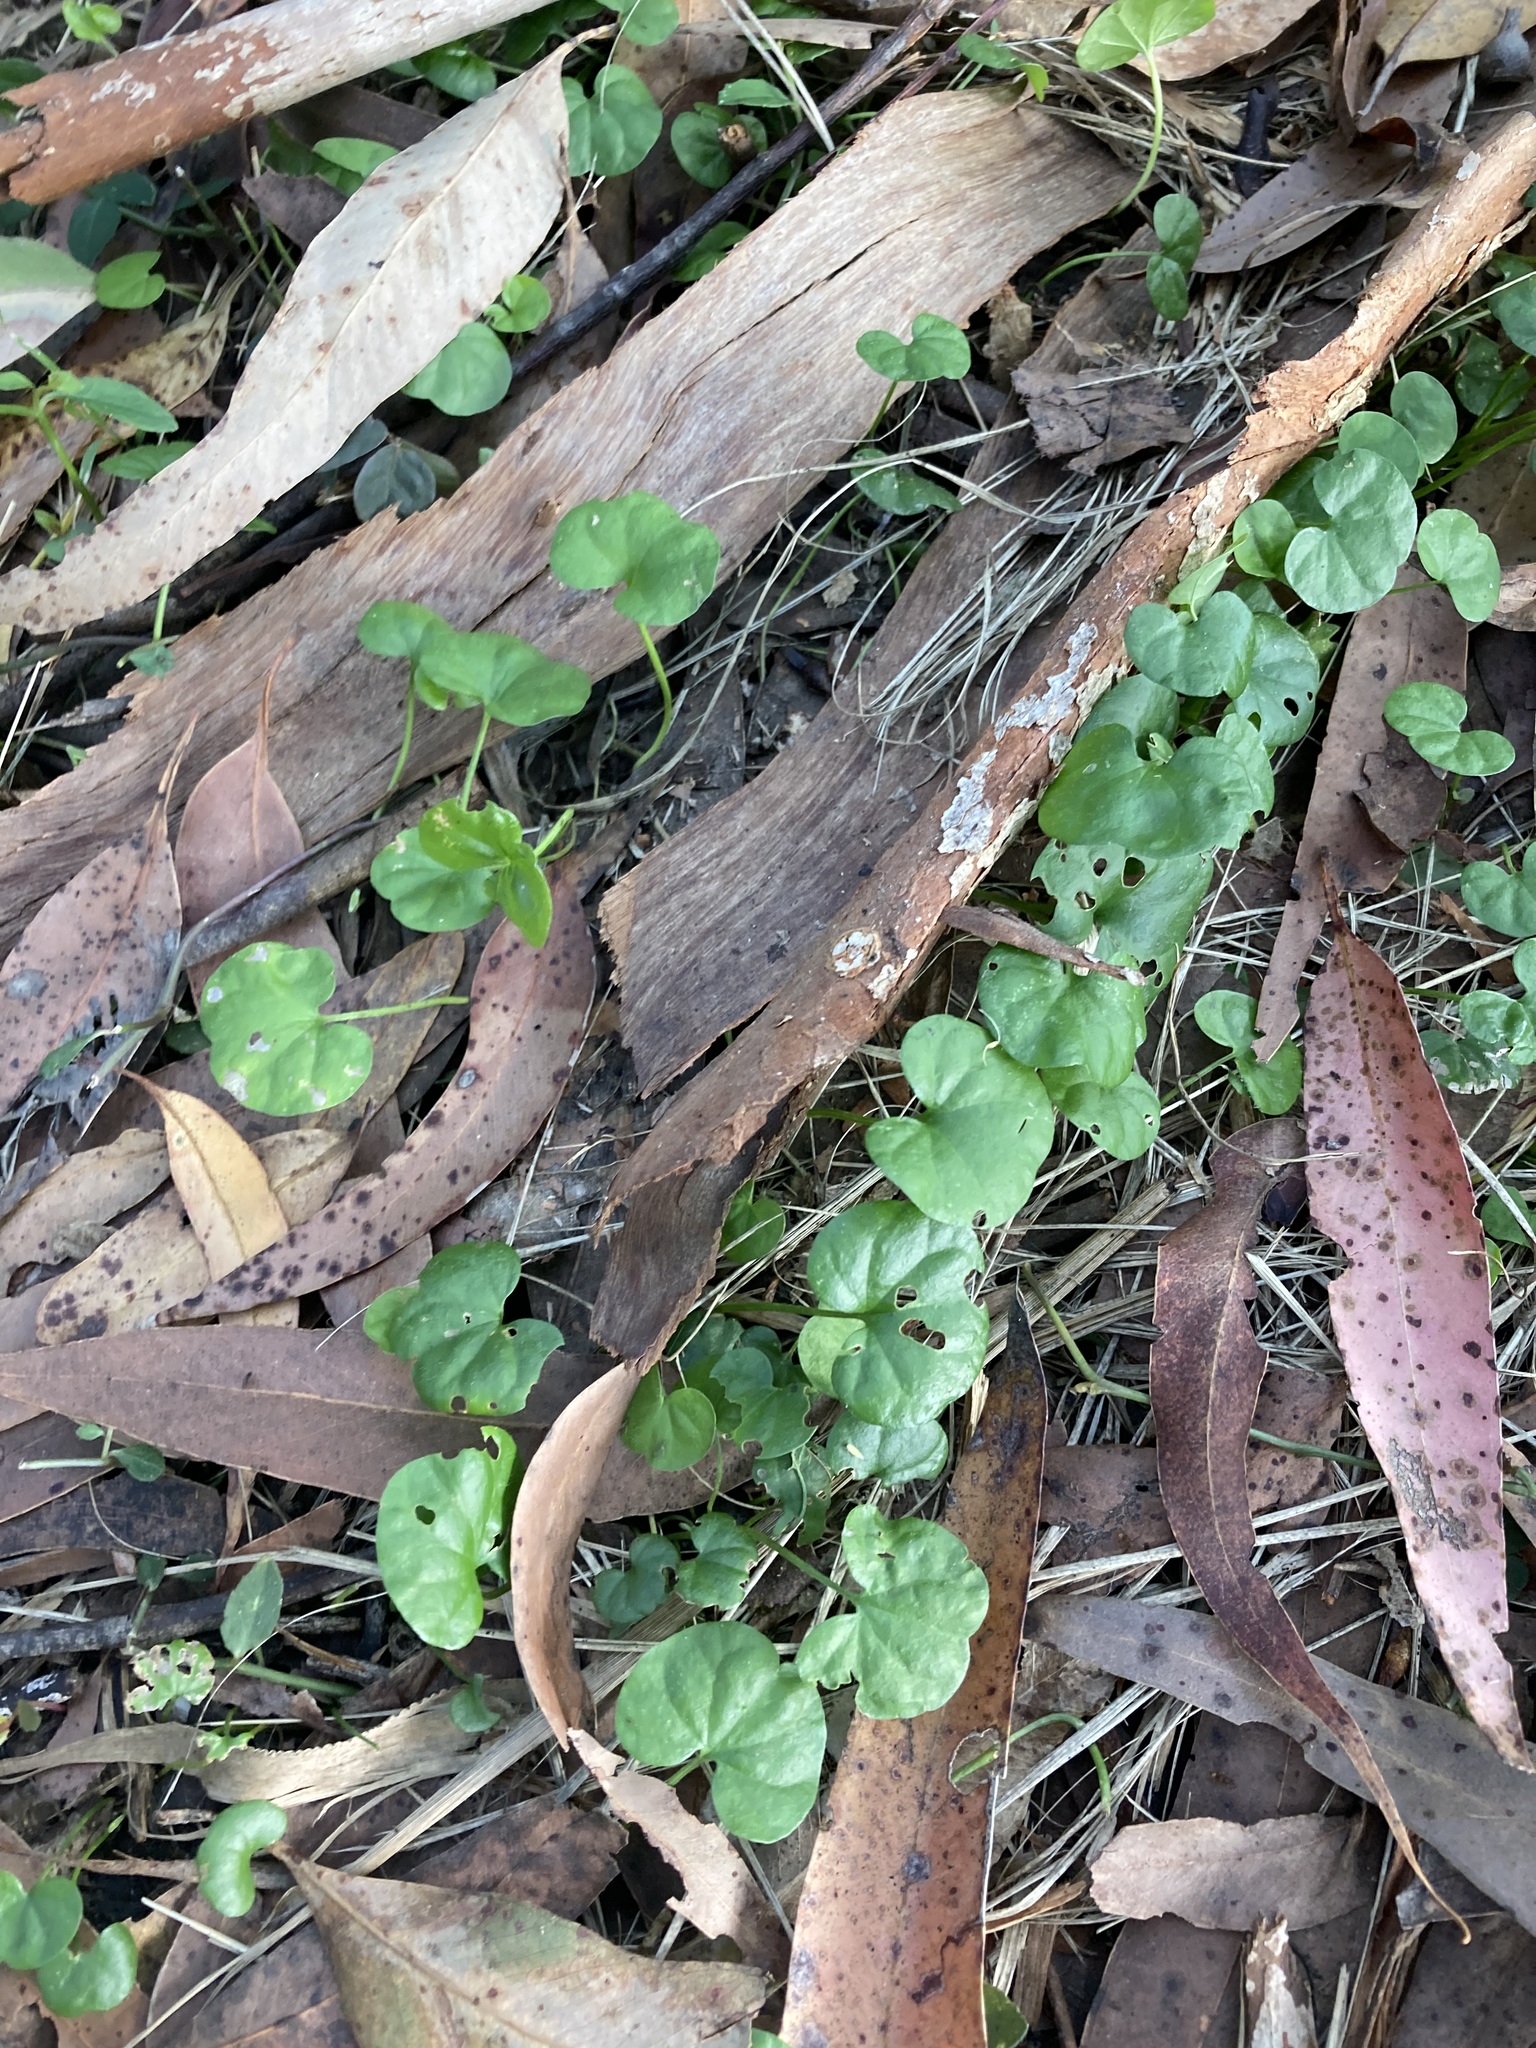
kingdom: Plantae
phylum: Tracheophyta
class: Magnoliopsida
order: Solanales
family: Convolvulaceae
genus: Dichondra
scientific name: Dichondra repens
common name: Kidneyweed
